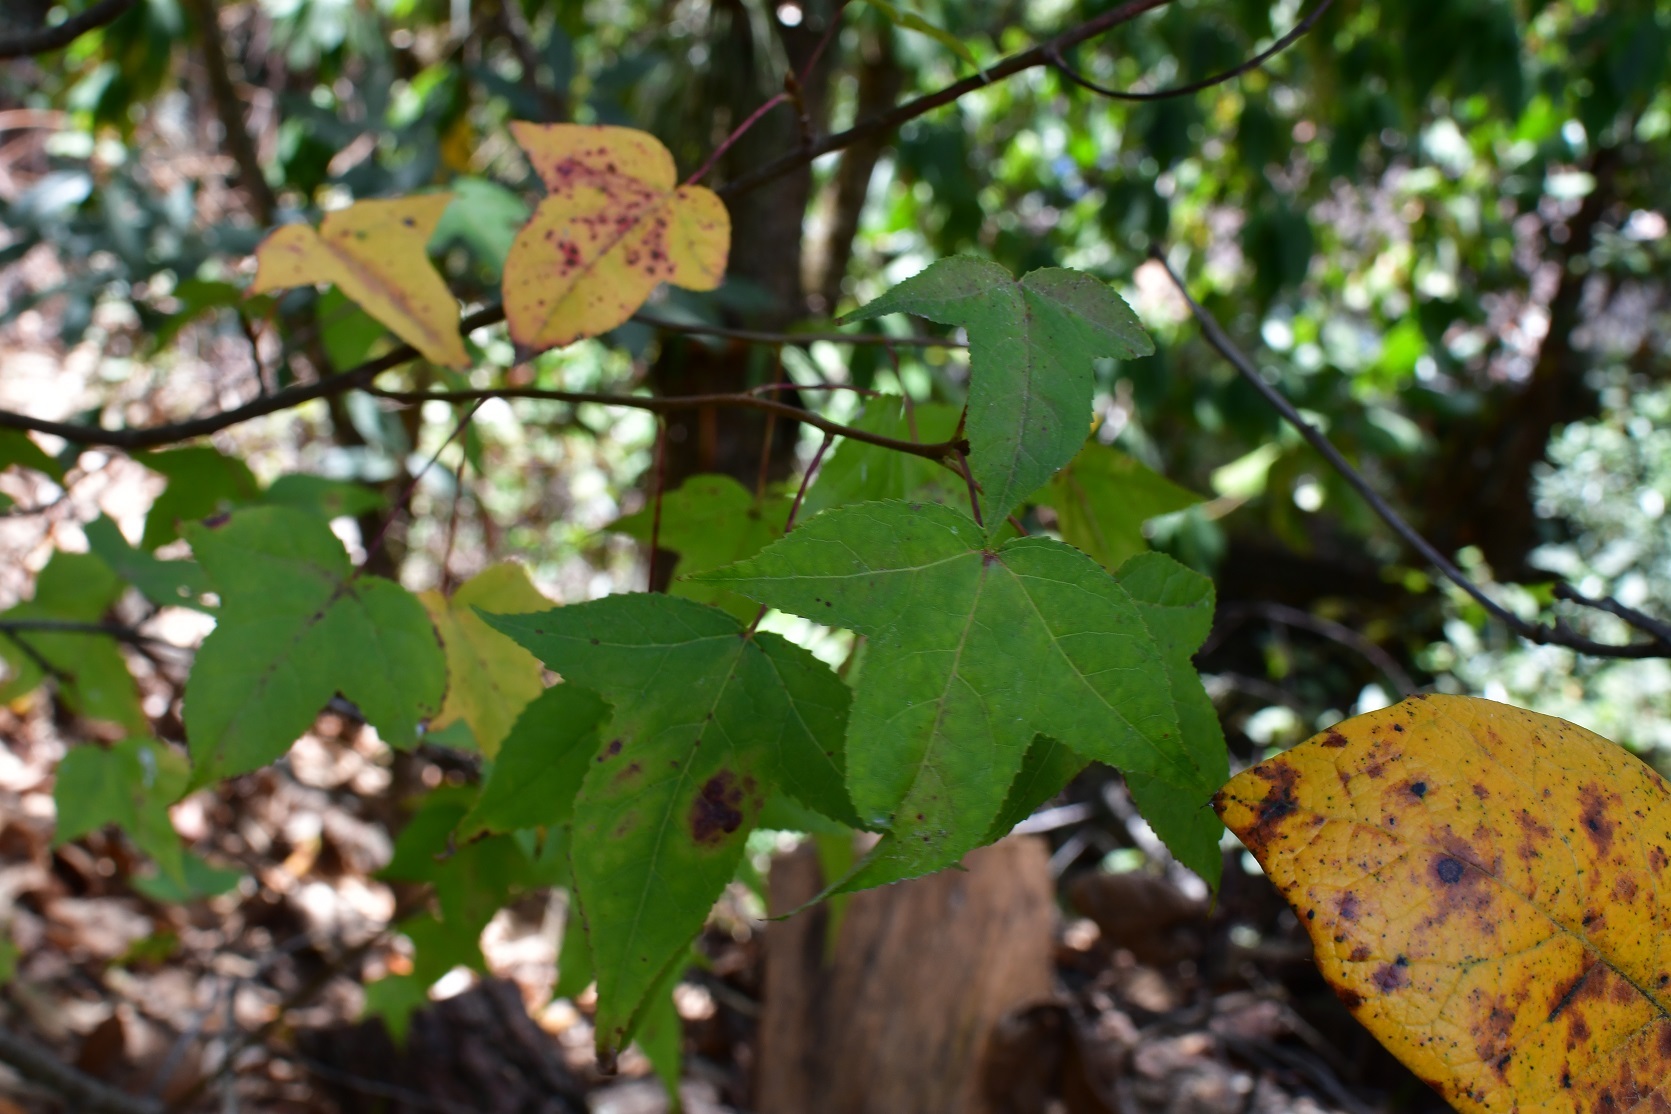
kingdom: Plantae
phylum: Tracheophyta
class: Magnoliopsida
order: Saxifragales
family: Altingiaceae
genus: Liquidambar
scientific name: Liquidambar styraciflua
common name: Sweet gum
